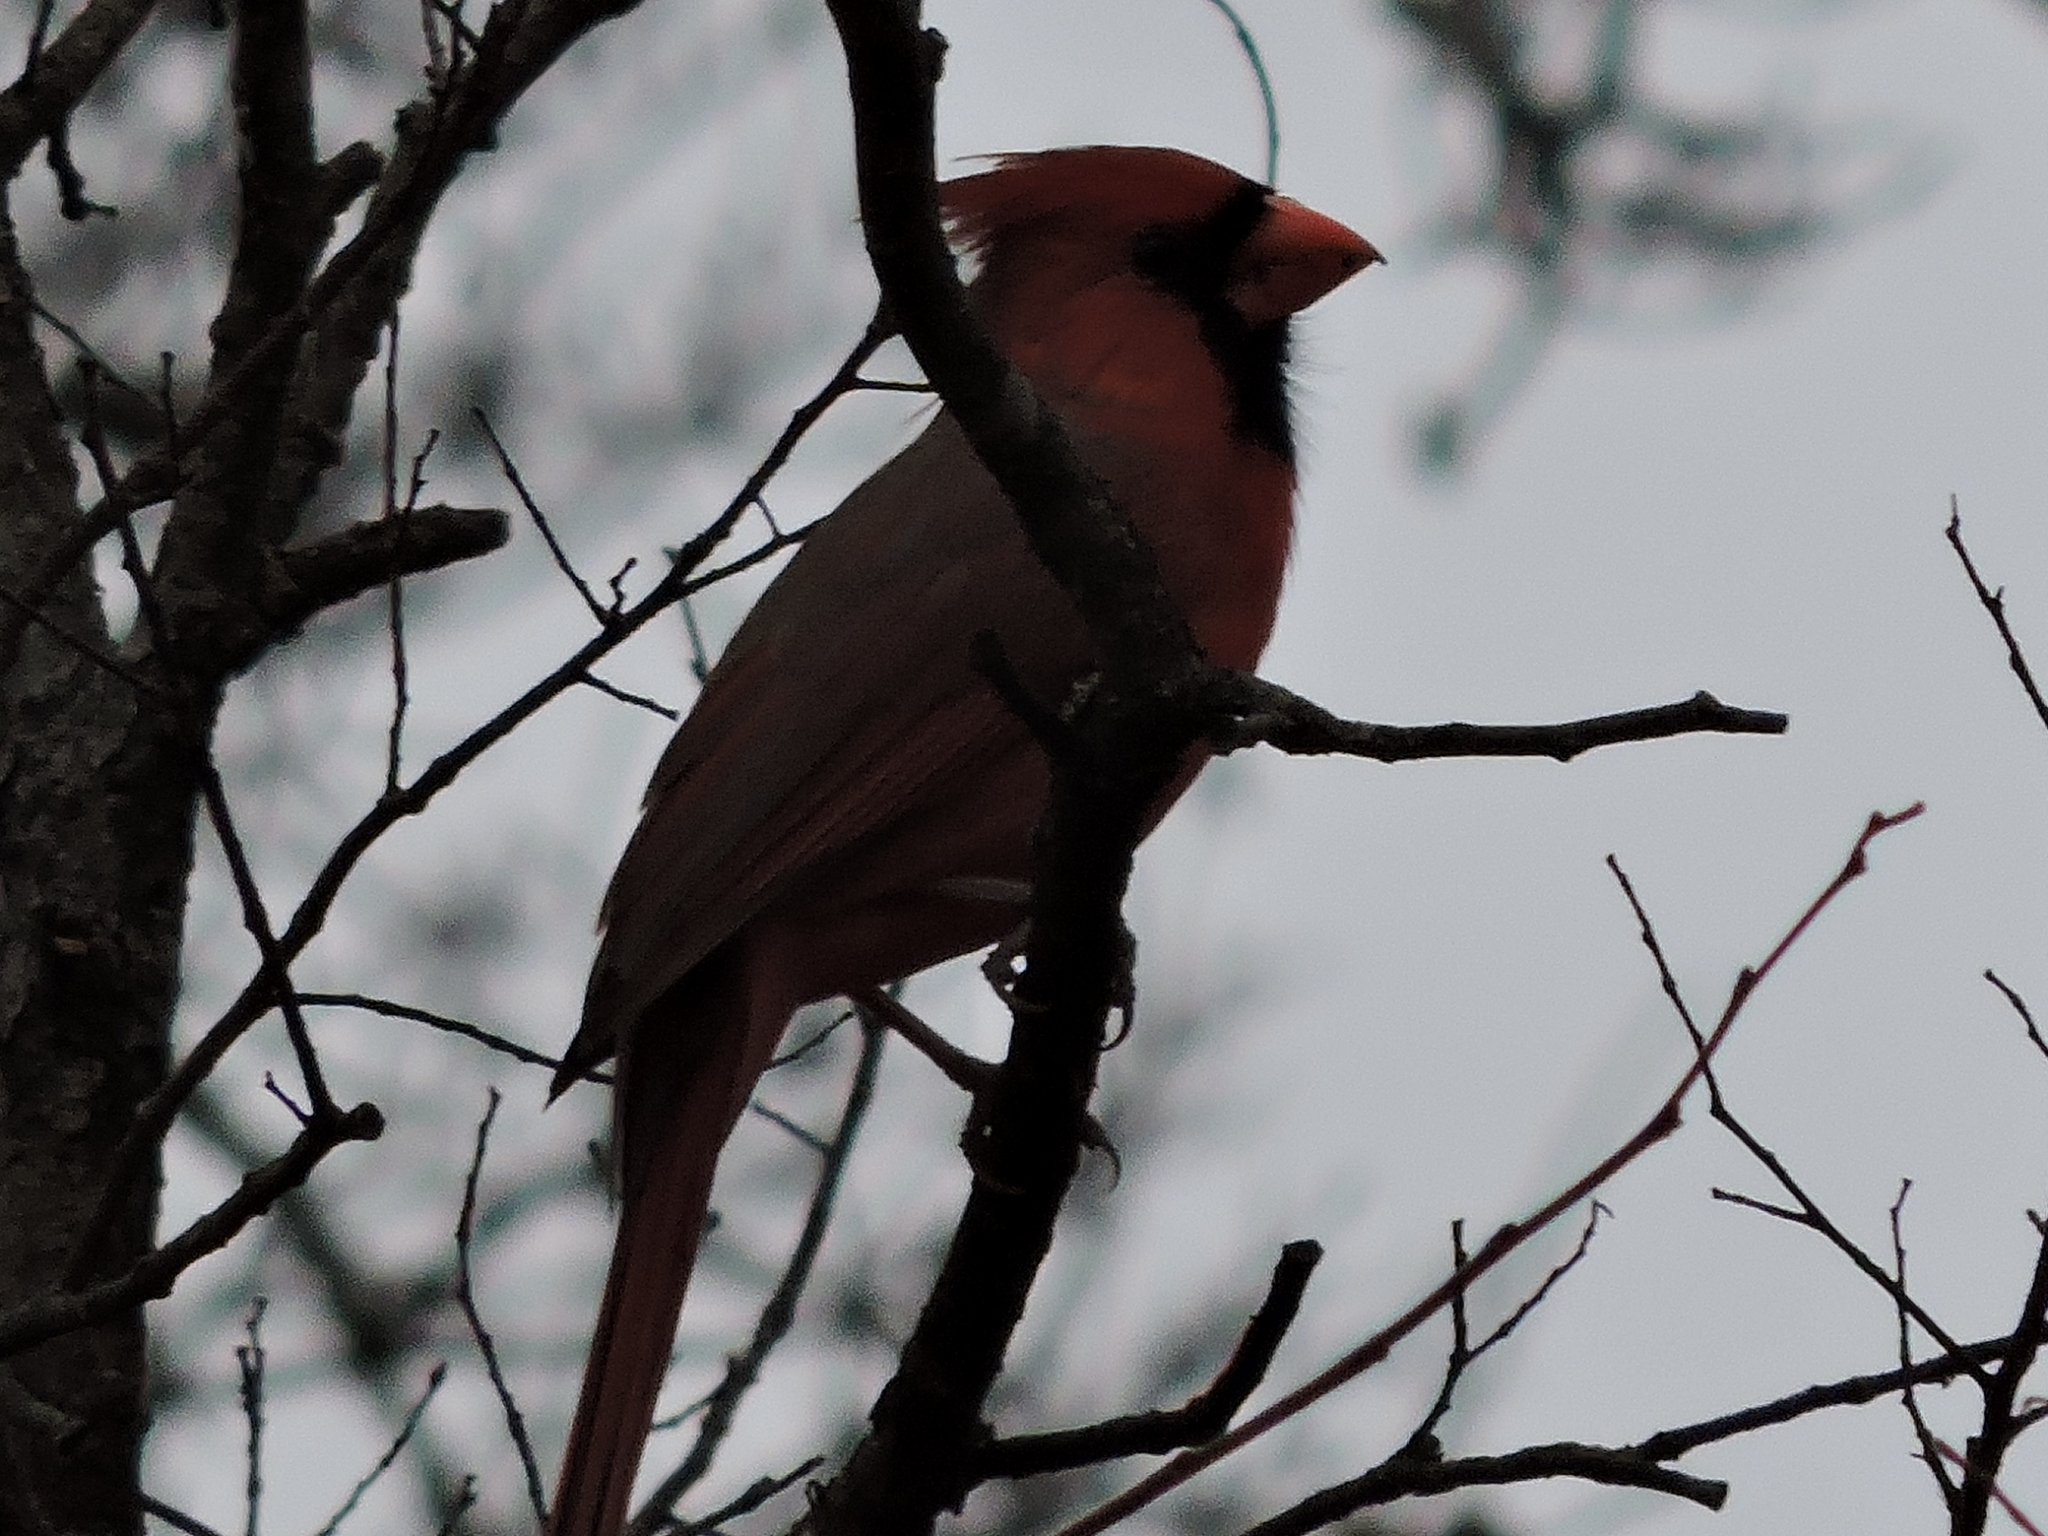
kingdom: Animalia
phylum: Chordata
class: Aves
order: Passeriformes
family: Cardinalidae
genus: Cardinalis
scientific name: Cardinalis cardinalis
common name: Northern cardinal
